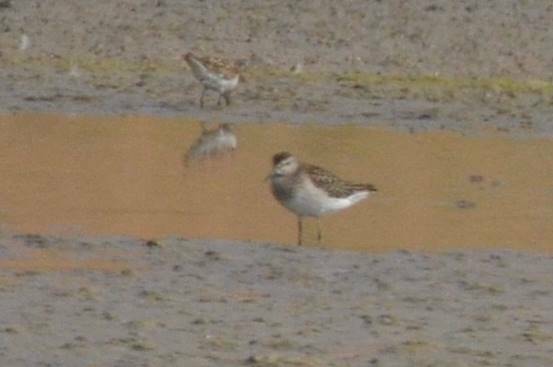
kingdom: Animalia
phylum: Chordata
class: Aves
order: Charadriiformes
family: Scolopacidae
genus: Tringa
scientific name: Tringa glareola
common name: Wood sandpiper
